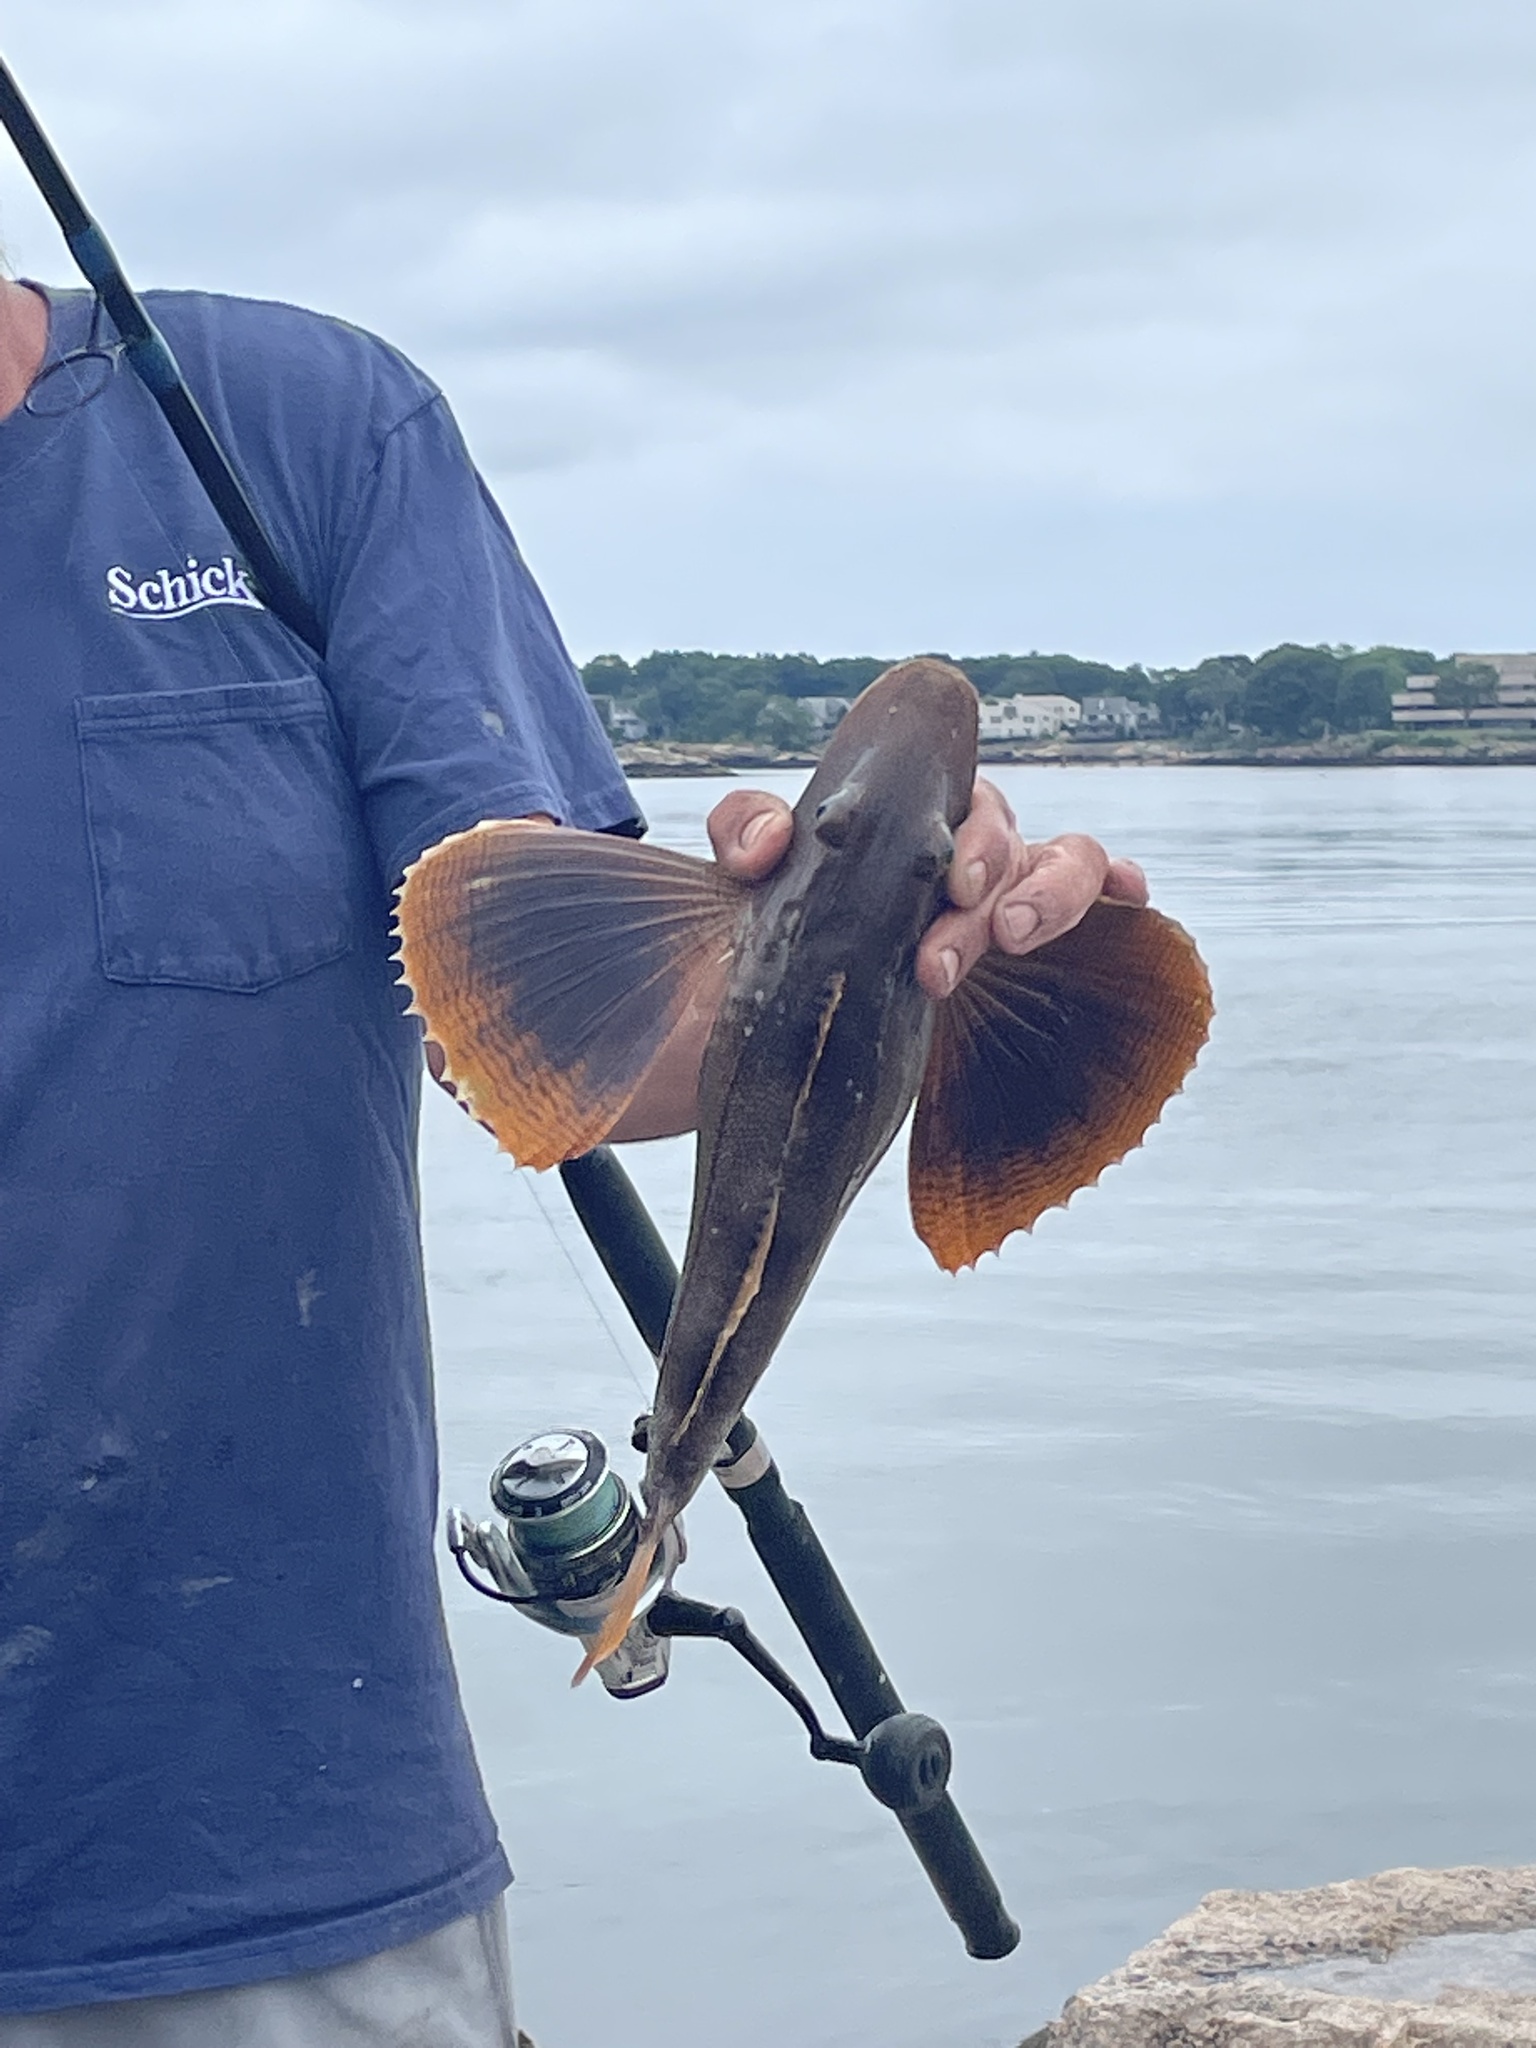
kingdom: Animalia
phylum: Chordata
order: Scorpaeniformes
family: Triglidae
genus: Prionotus
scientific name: Prionotus evolans
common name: Striped searobin
